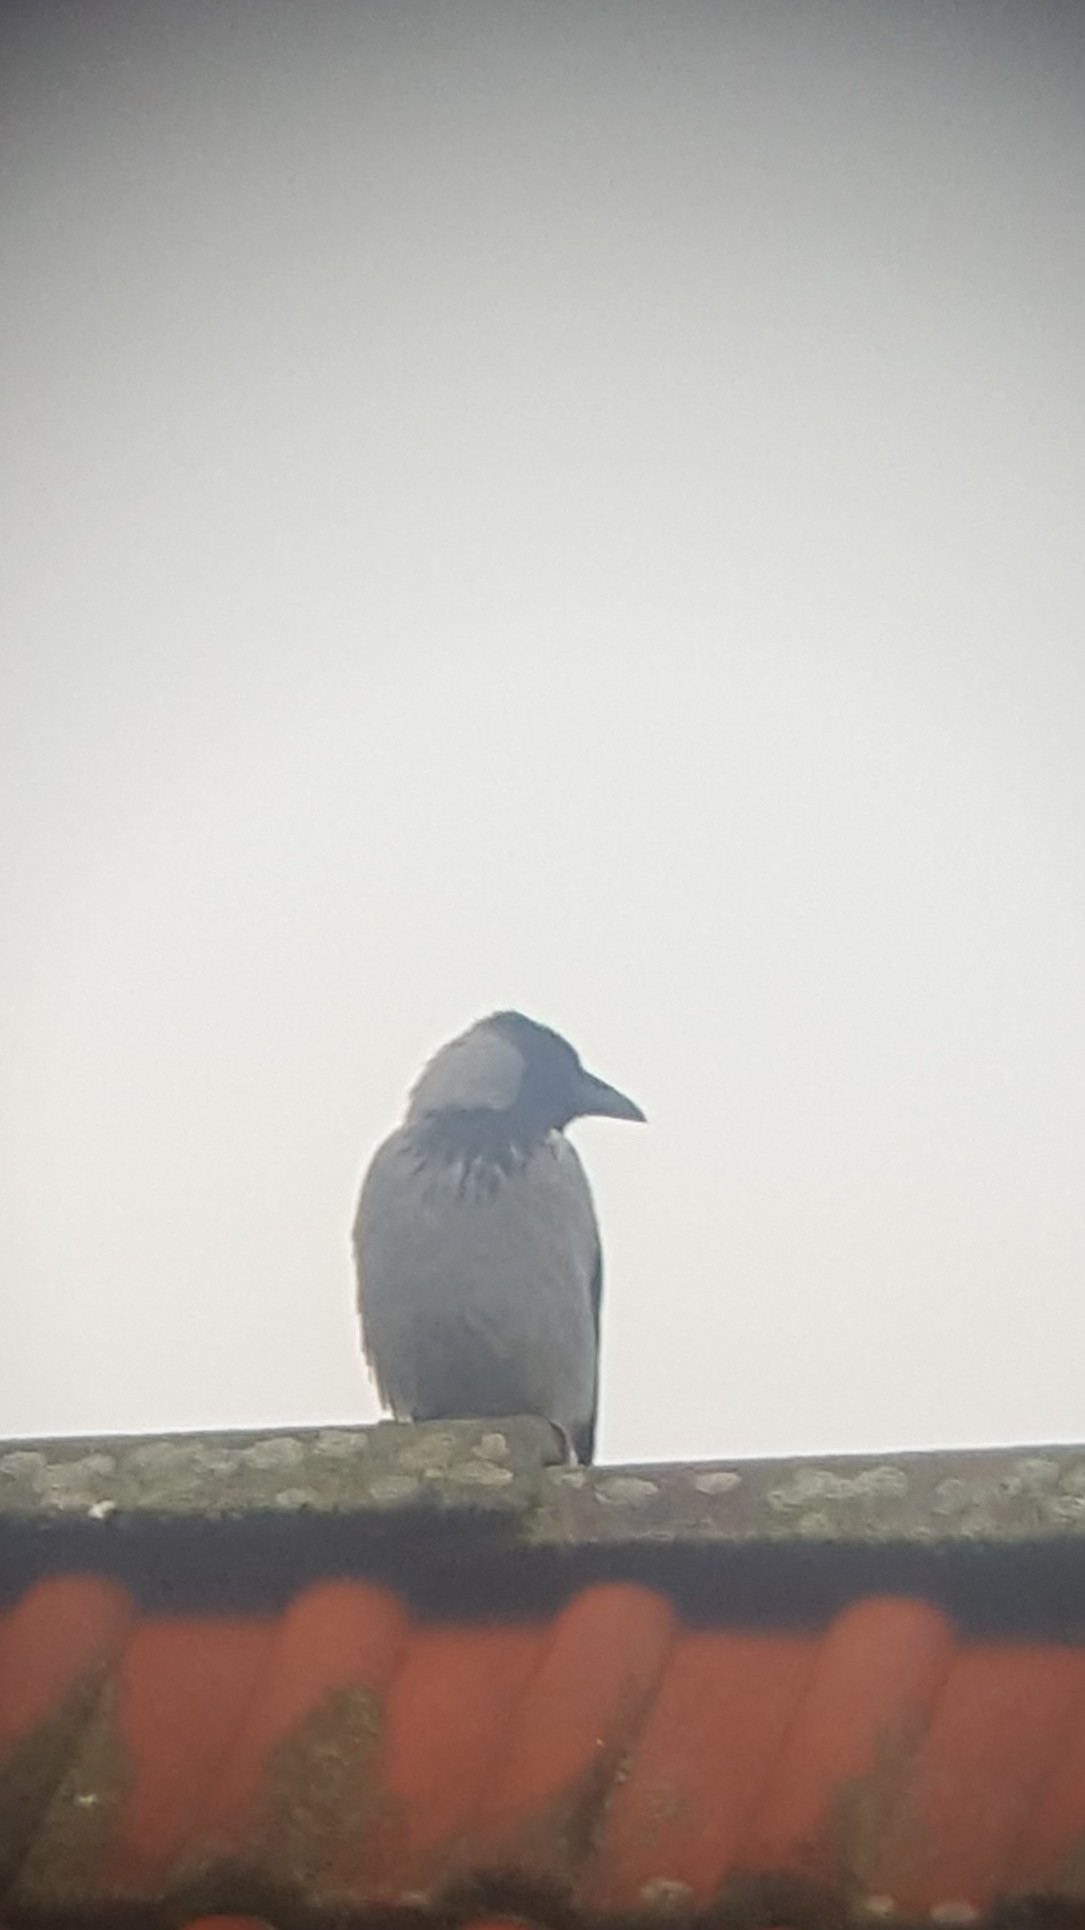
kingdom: Animalia
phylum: Chordata
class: Aves
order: Passeriformes
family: Corvidae
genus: Corvus
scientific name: Corvus cornix
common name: Hooded crow
